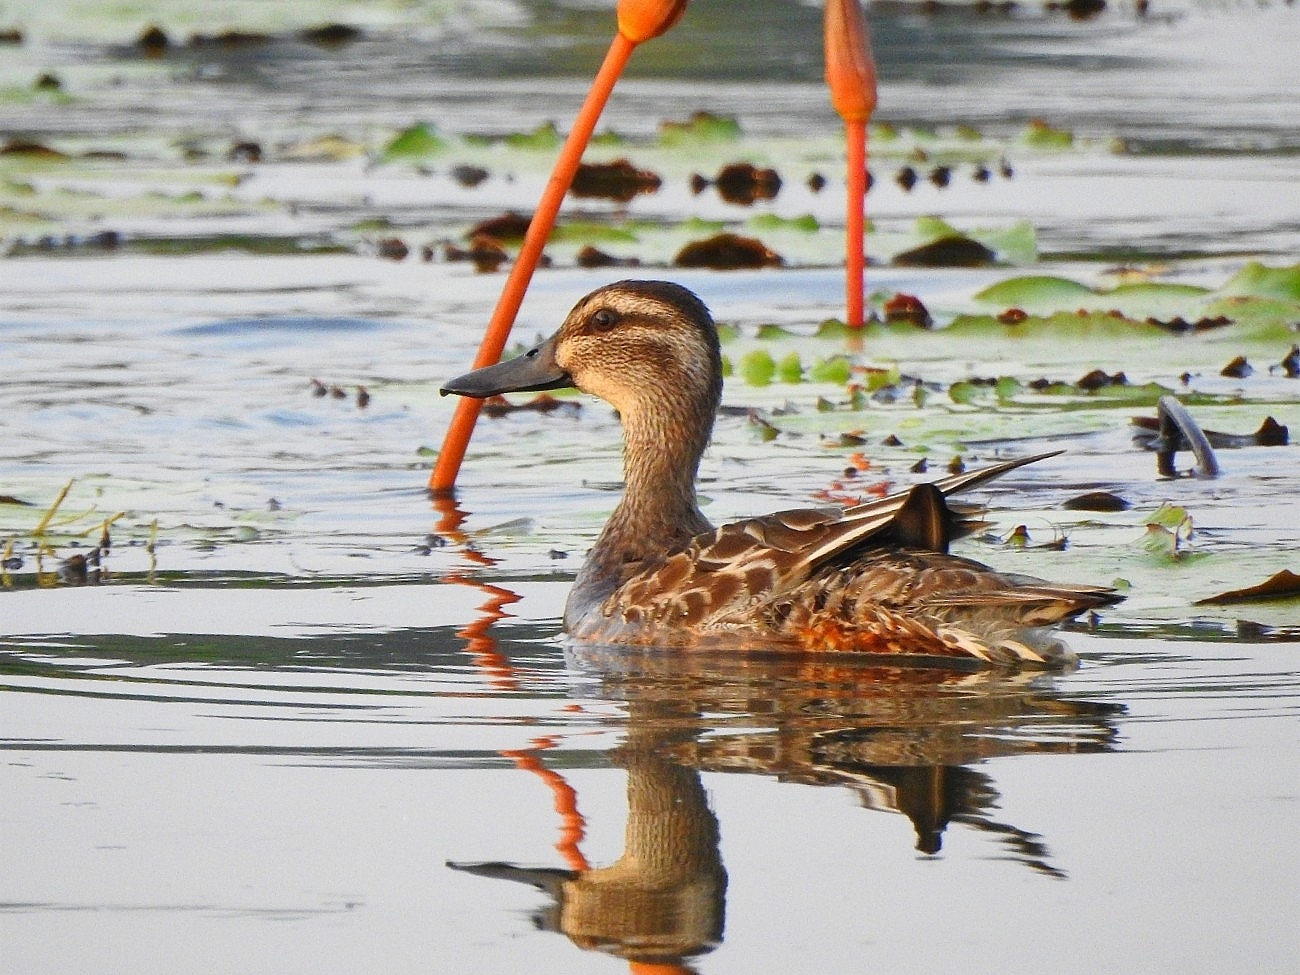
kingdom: Animalia
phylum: Chordata
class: Aves
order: Anseriformes
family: Anatidae
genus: Spatula
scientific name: Spatula querquedula
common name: Garganey
